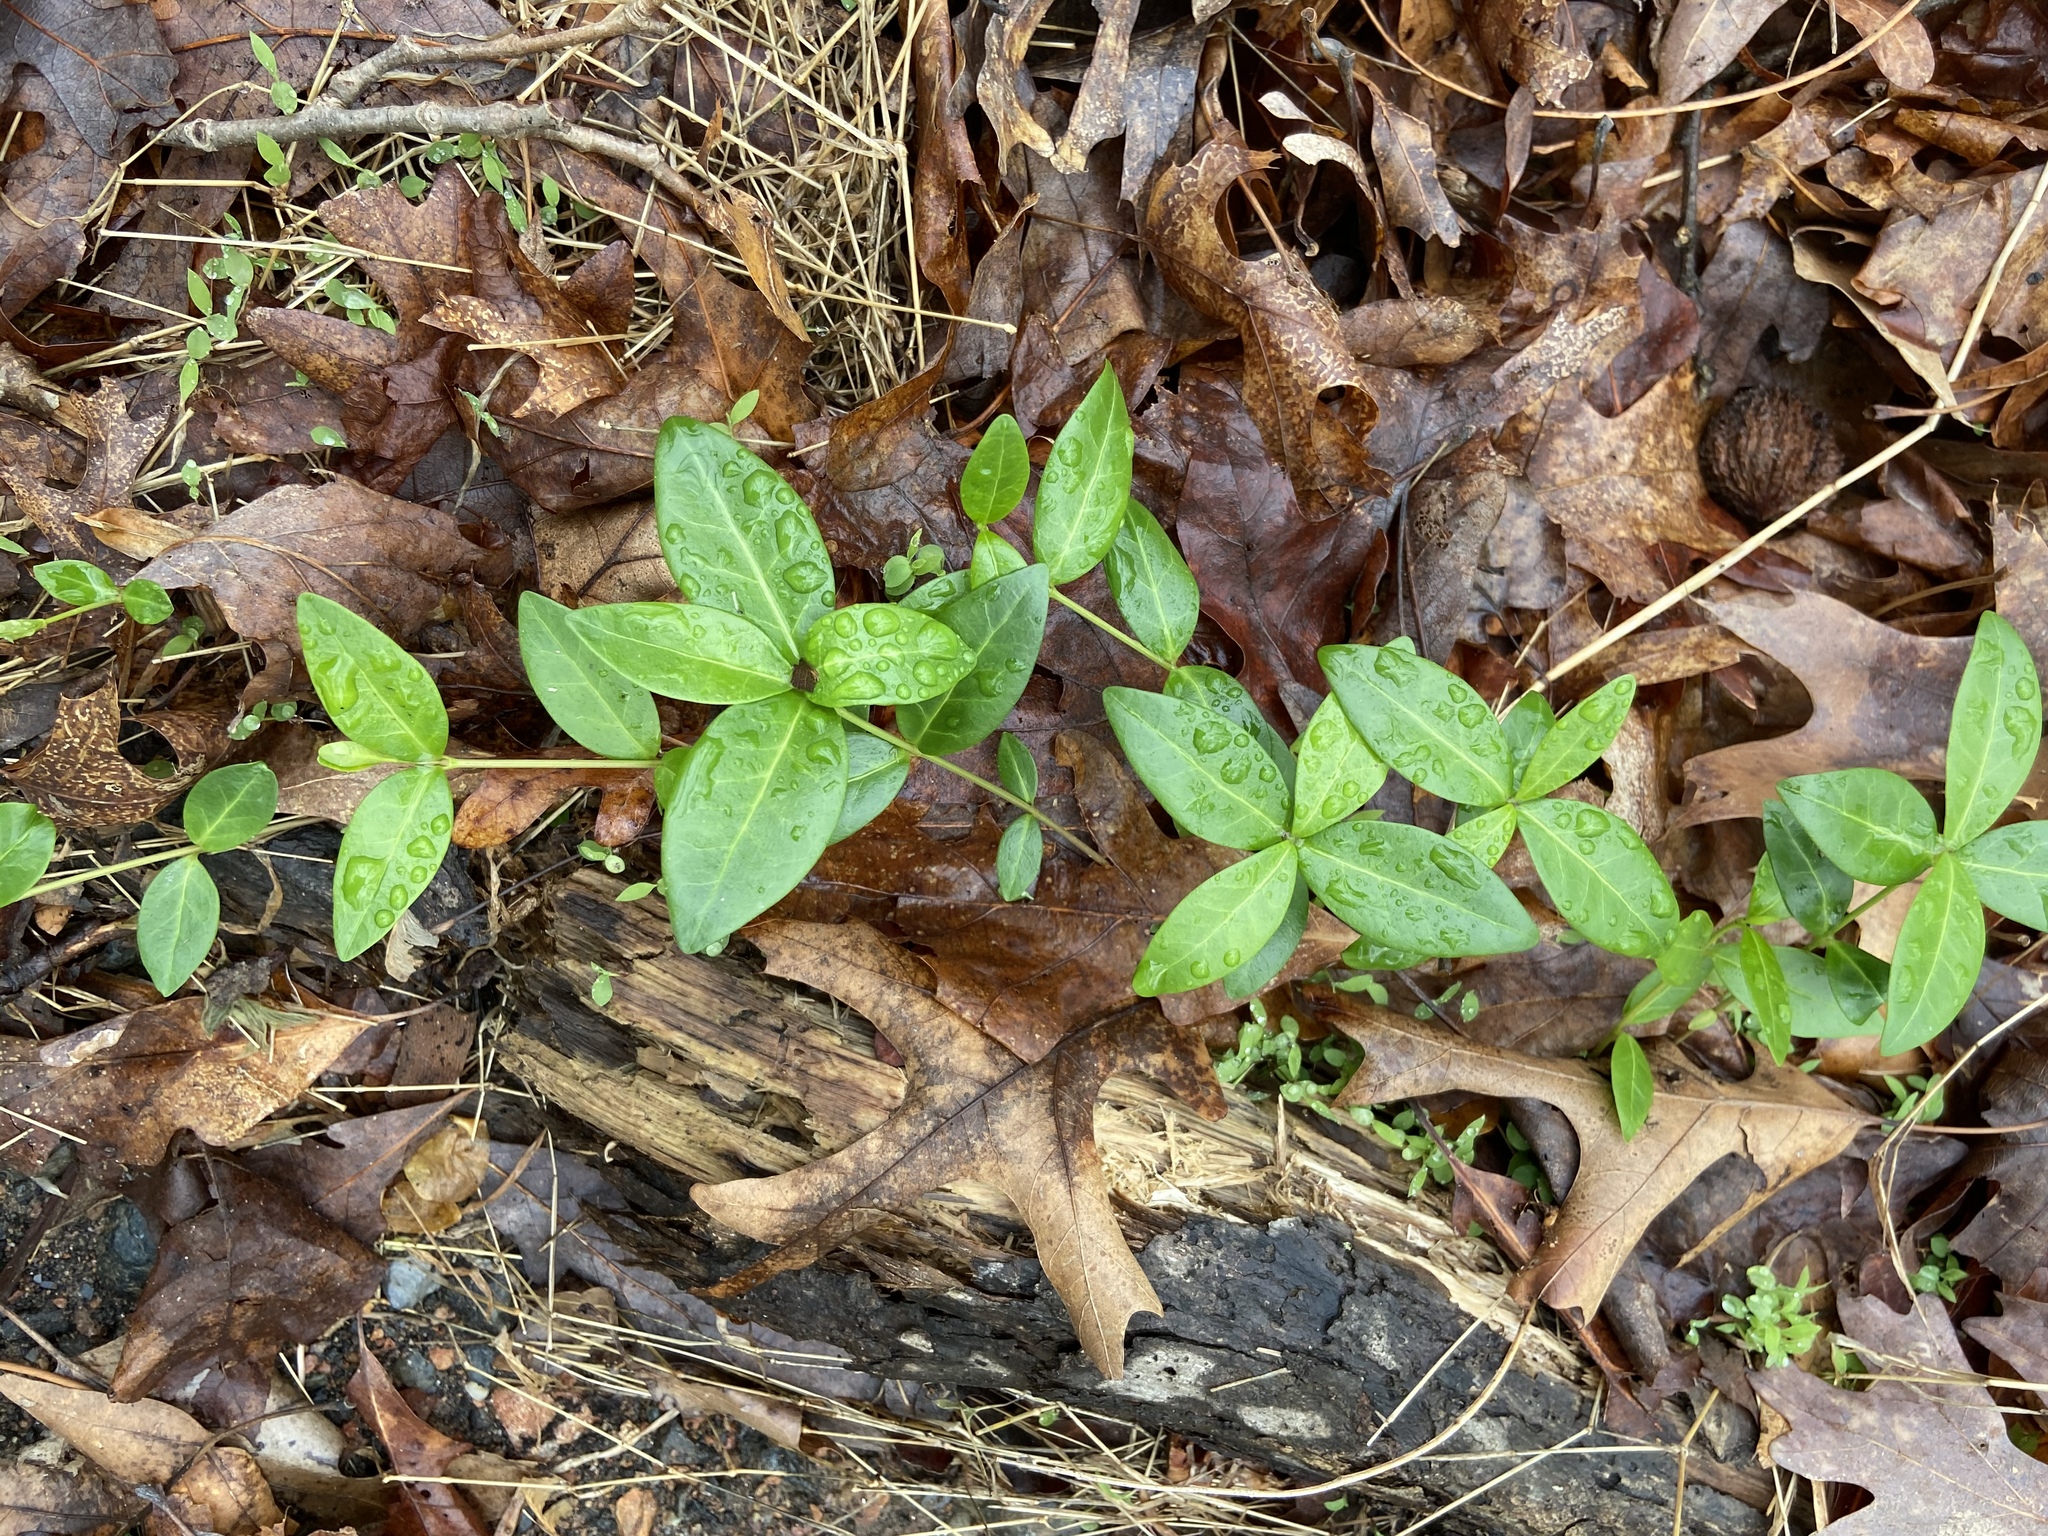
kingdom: Plantae
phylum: Tracheophyta
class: Magnoliopsida
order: Gentianales
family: Apocynaceae
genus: Vinca
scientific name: Vinca minor
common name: Lesser periwinkle
